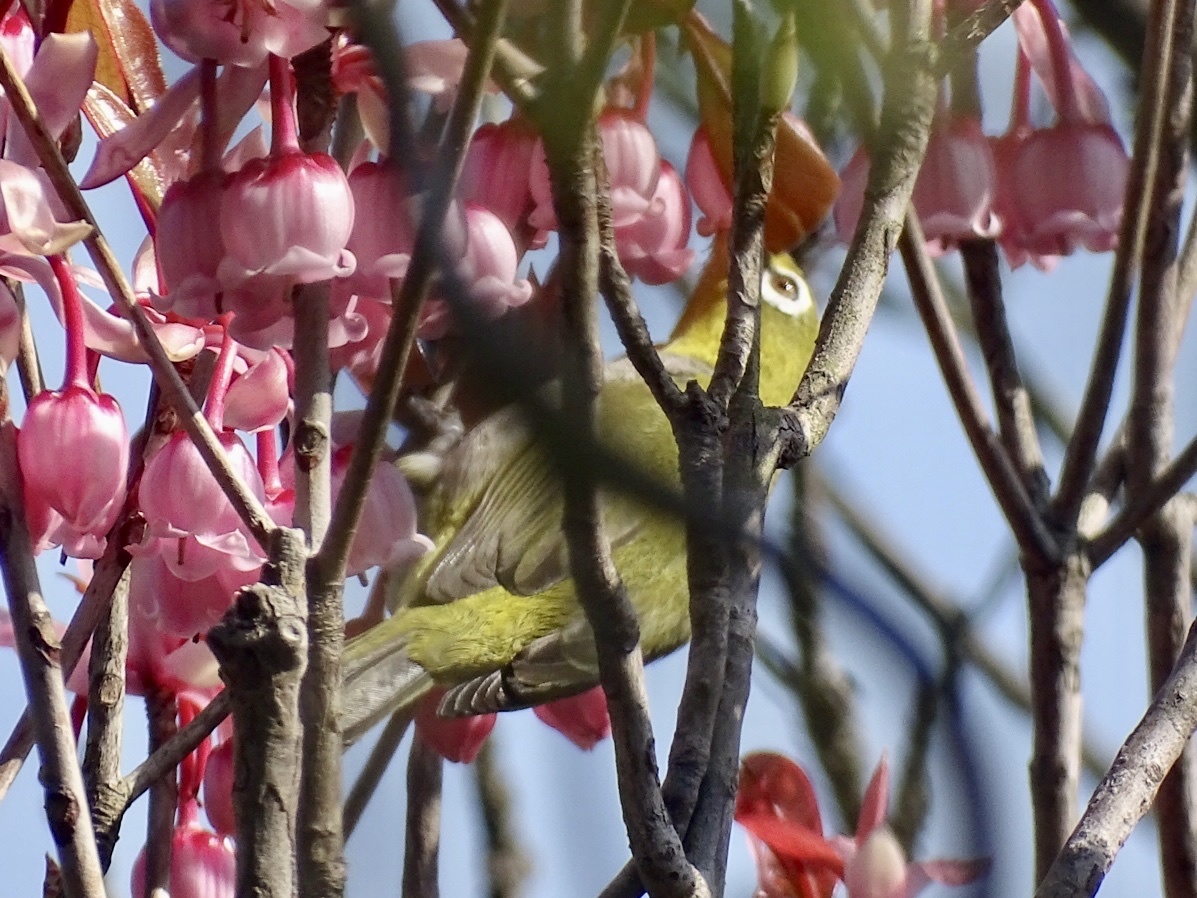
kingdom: Animalia
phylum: Chordata
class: Aves
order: Passeriformes
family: Zosteropidae
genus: Zosterops
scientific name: Zosterops simplex
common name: Swinhoe's white-eye
